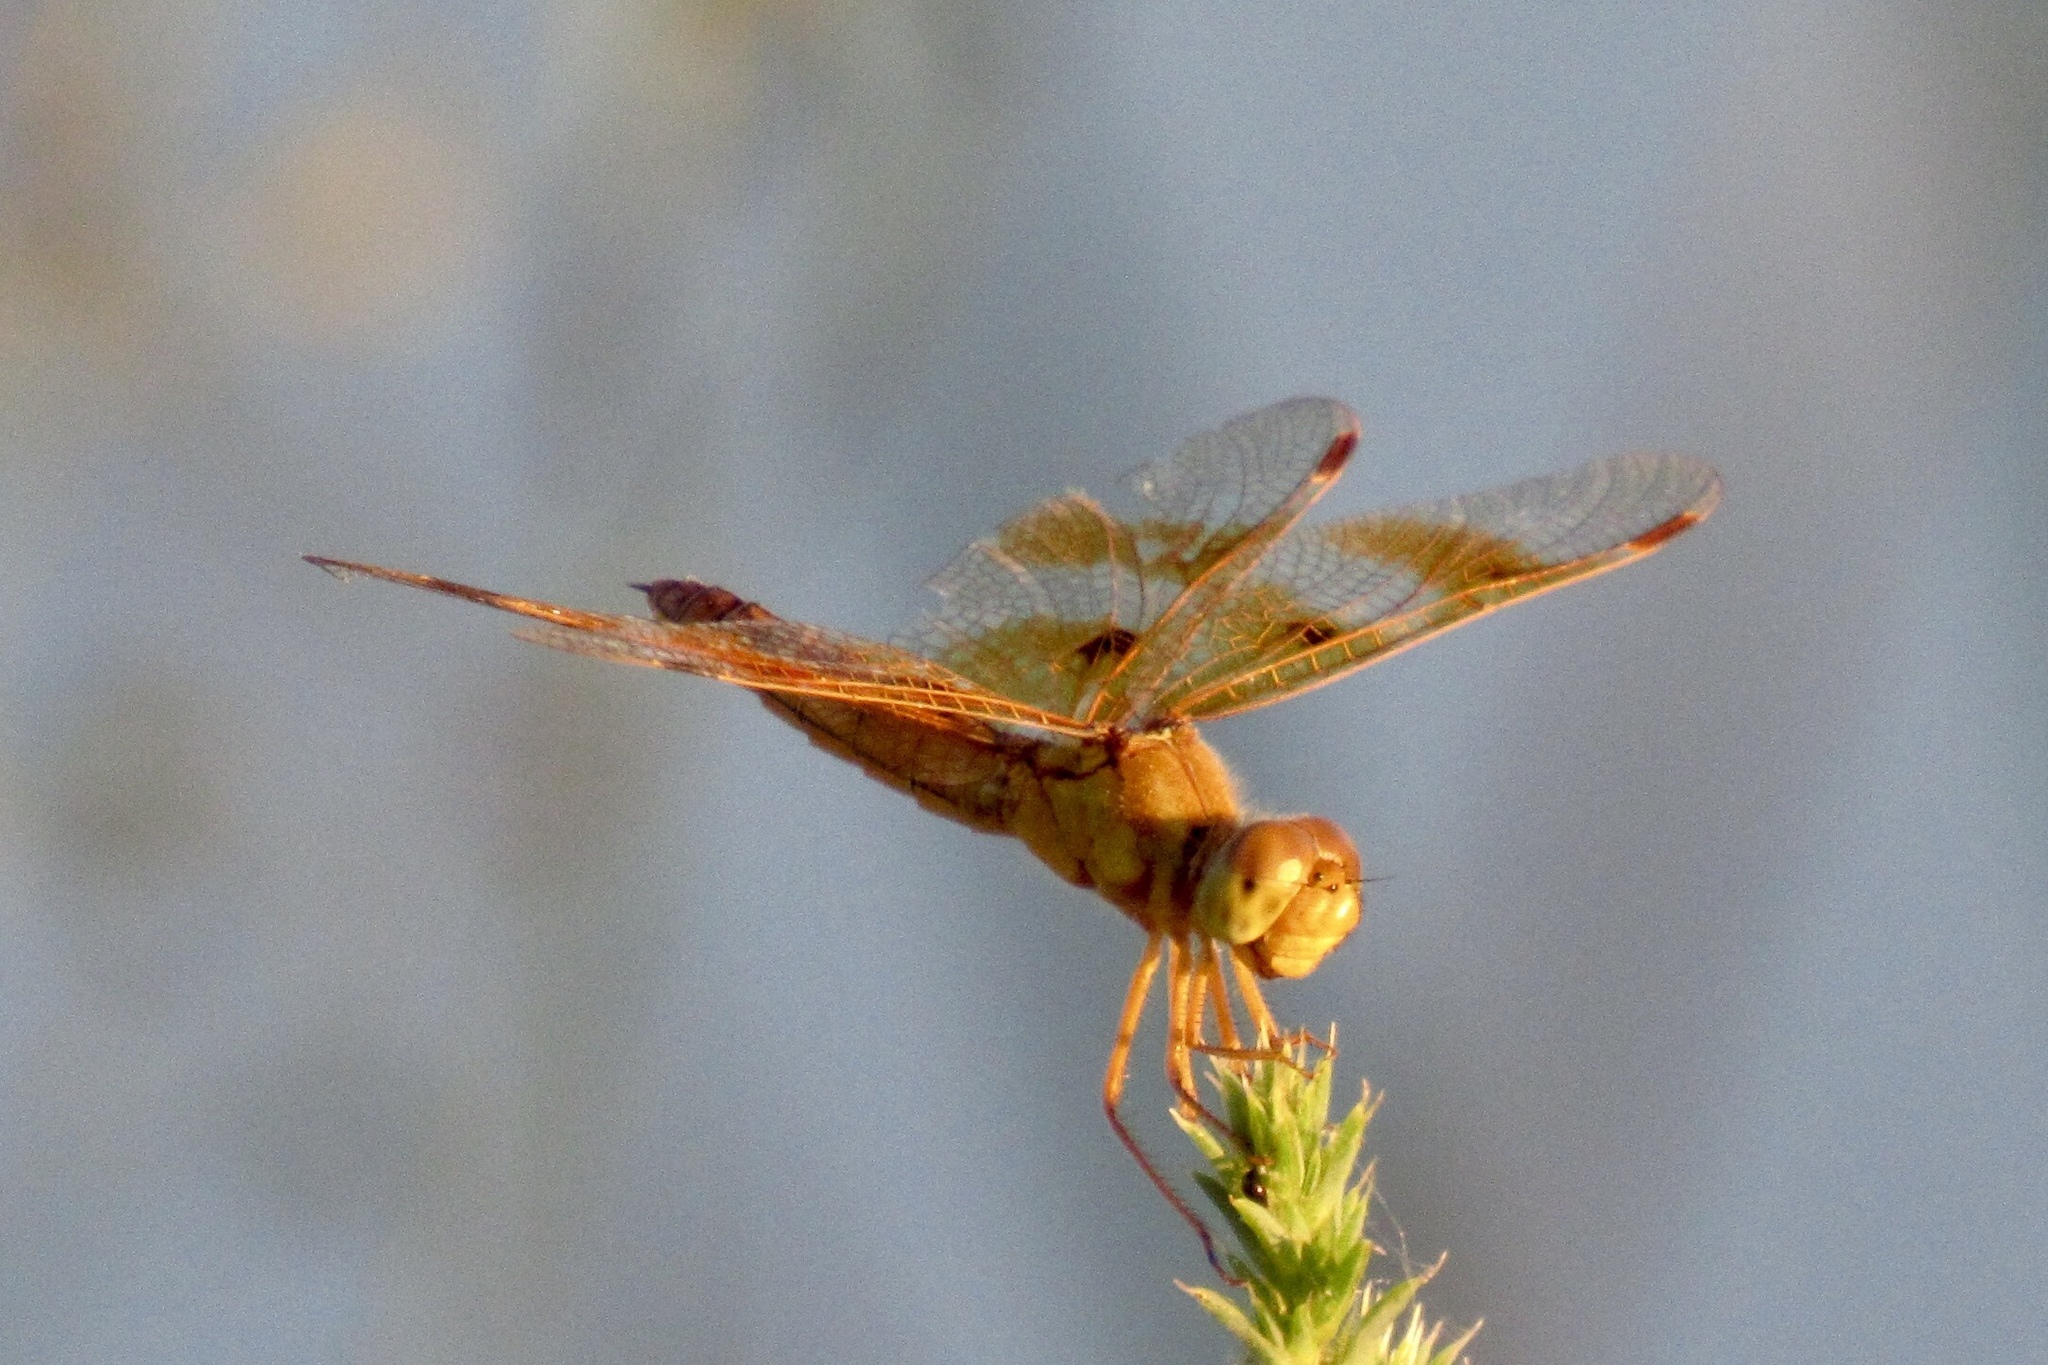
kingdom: Animalia
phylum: Arthropoda
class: Insecta
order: Odonata
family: Libellulidae
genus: Perithemis
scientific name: Perithemis intensa
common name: Mexican amberwing
